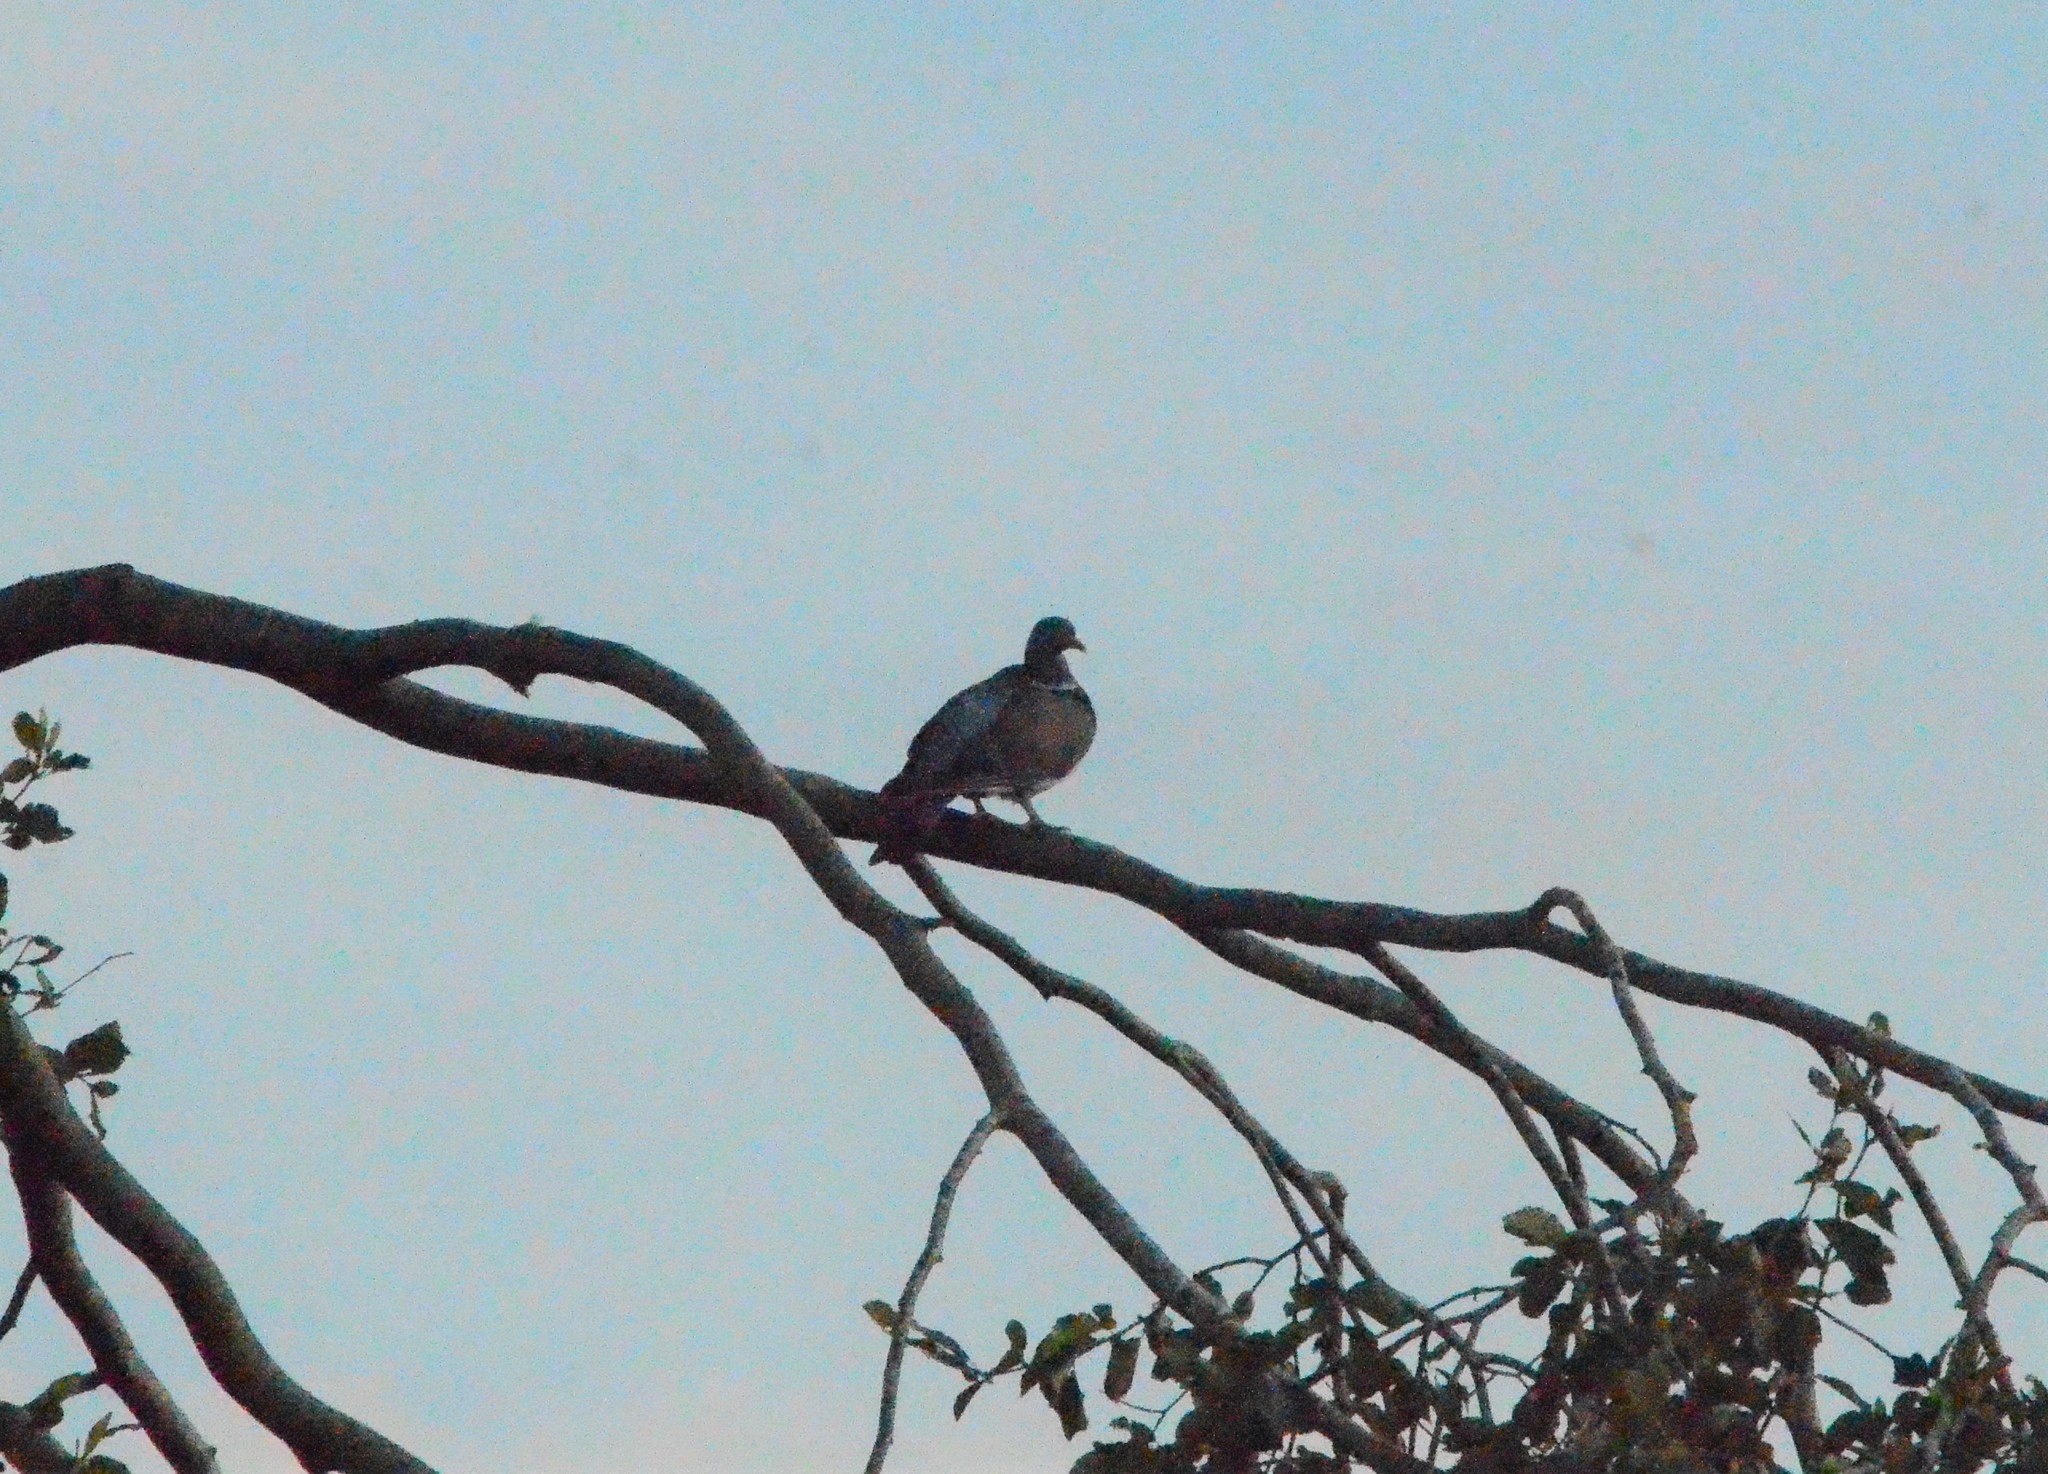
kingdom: Animalia
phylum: Chordata
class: Aves
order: Columbiformes
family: Columbidae
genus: Columba
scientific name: Columba palumbus
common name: Common wood pigeon
